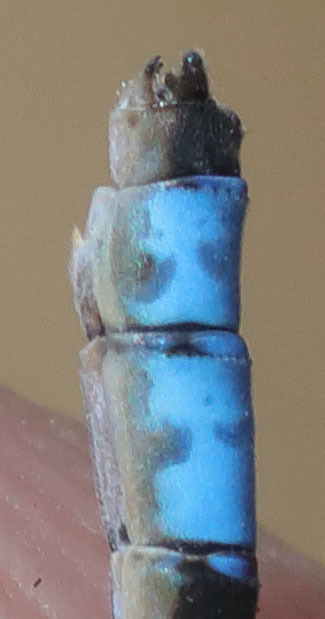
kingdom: Animalia
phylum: Arthropoda
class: Insecta
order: Odonata
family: Coenagrionidae
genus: Enallagma
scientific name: Enallagma praevarum
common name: Arroyo bluet
